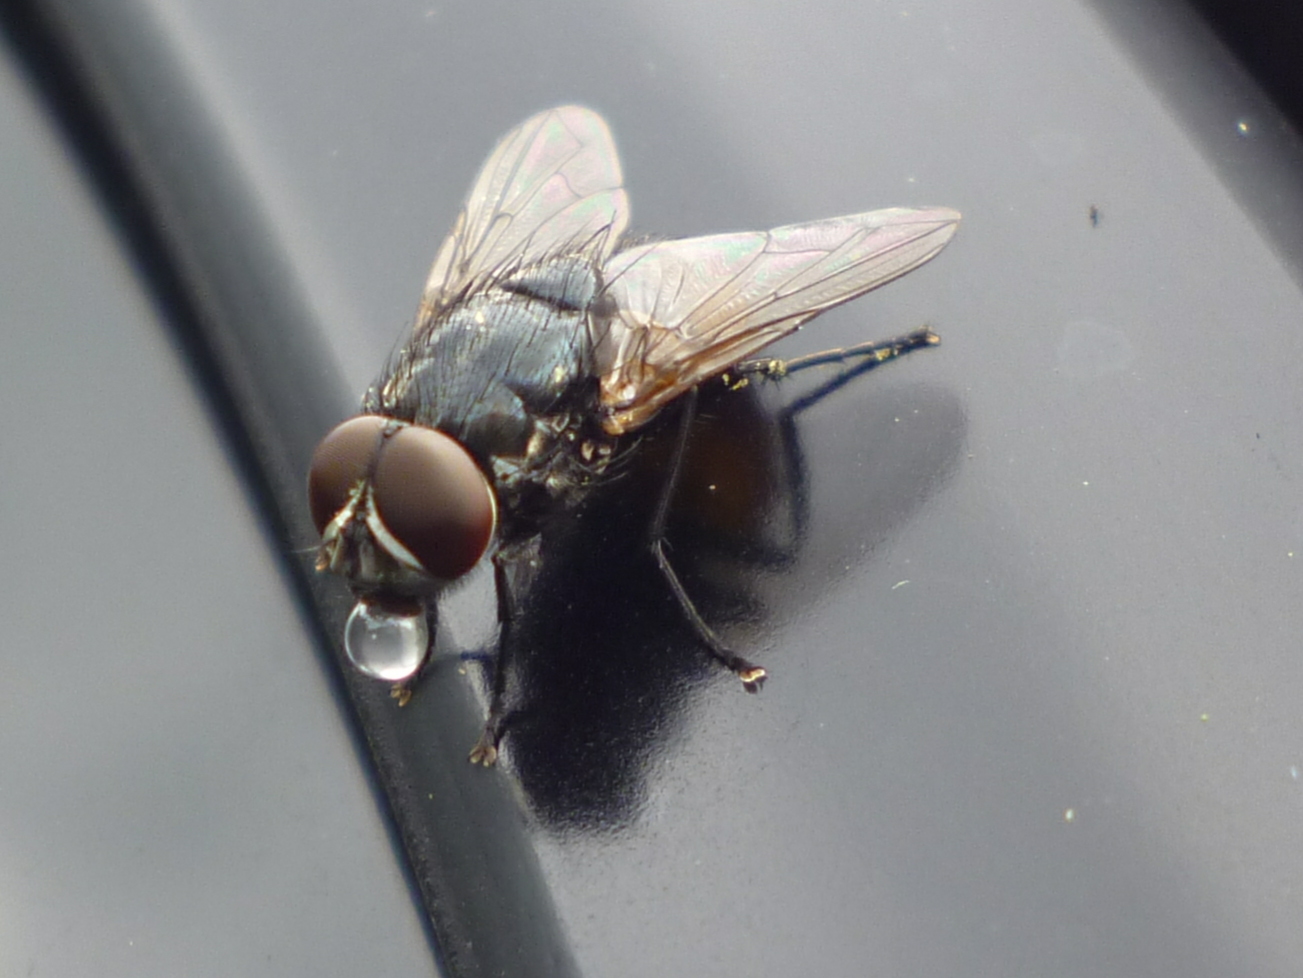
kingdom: Animalia
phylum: Arthropoda
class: Insecta
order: Diptera
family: Muscidae
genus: Musca
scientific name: Musca autumnalis
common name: Face fly
